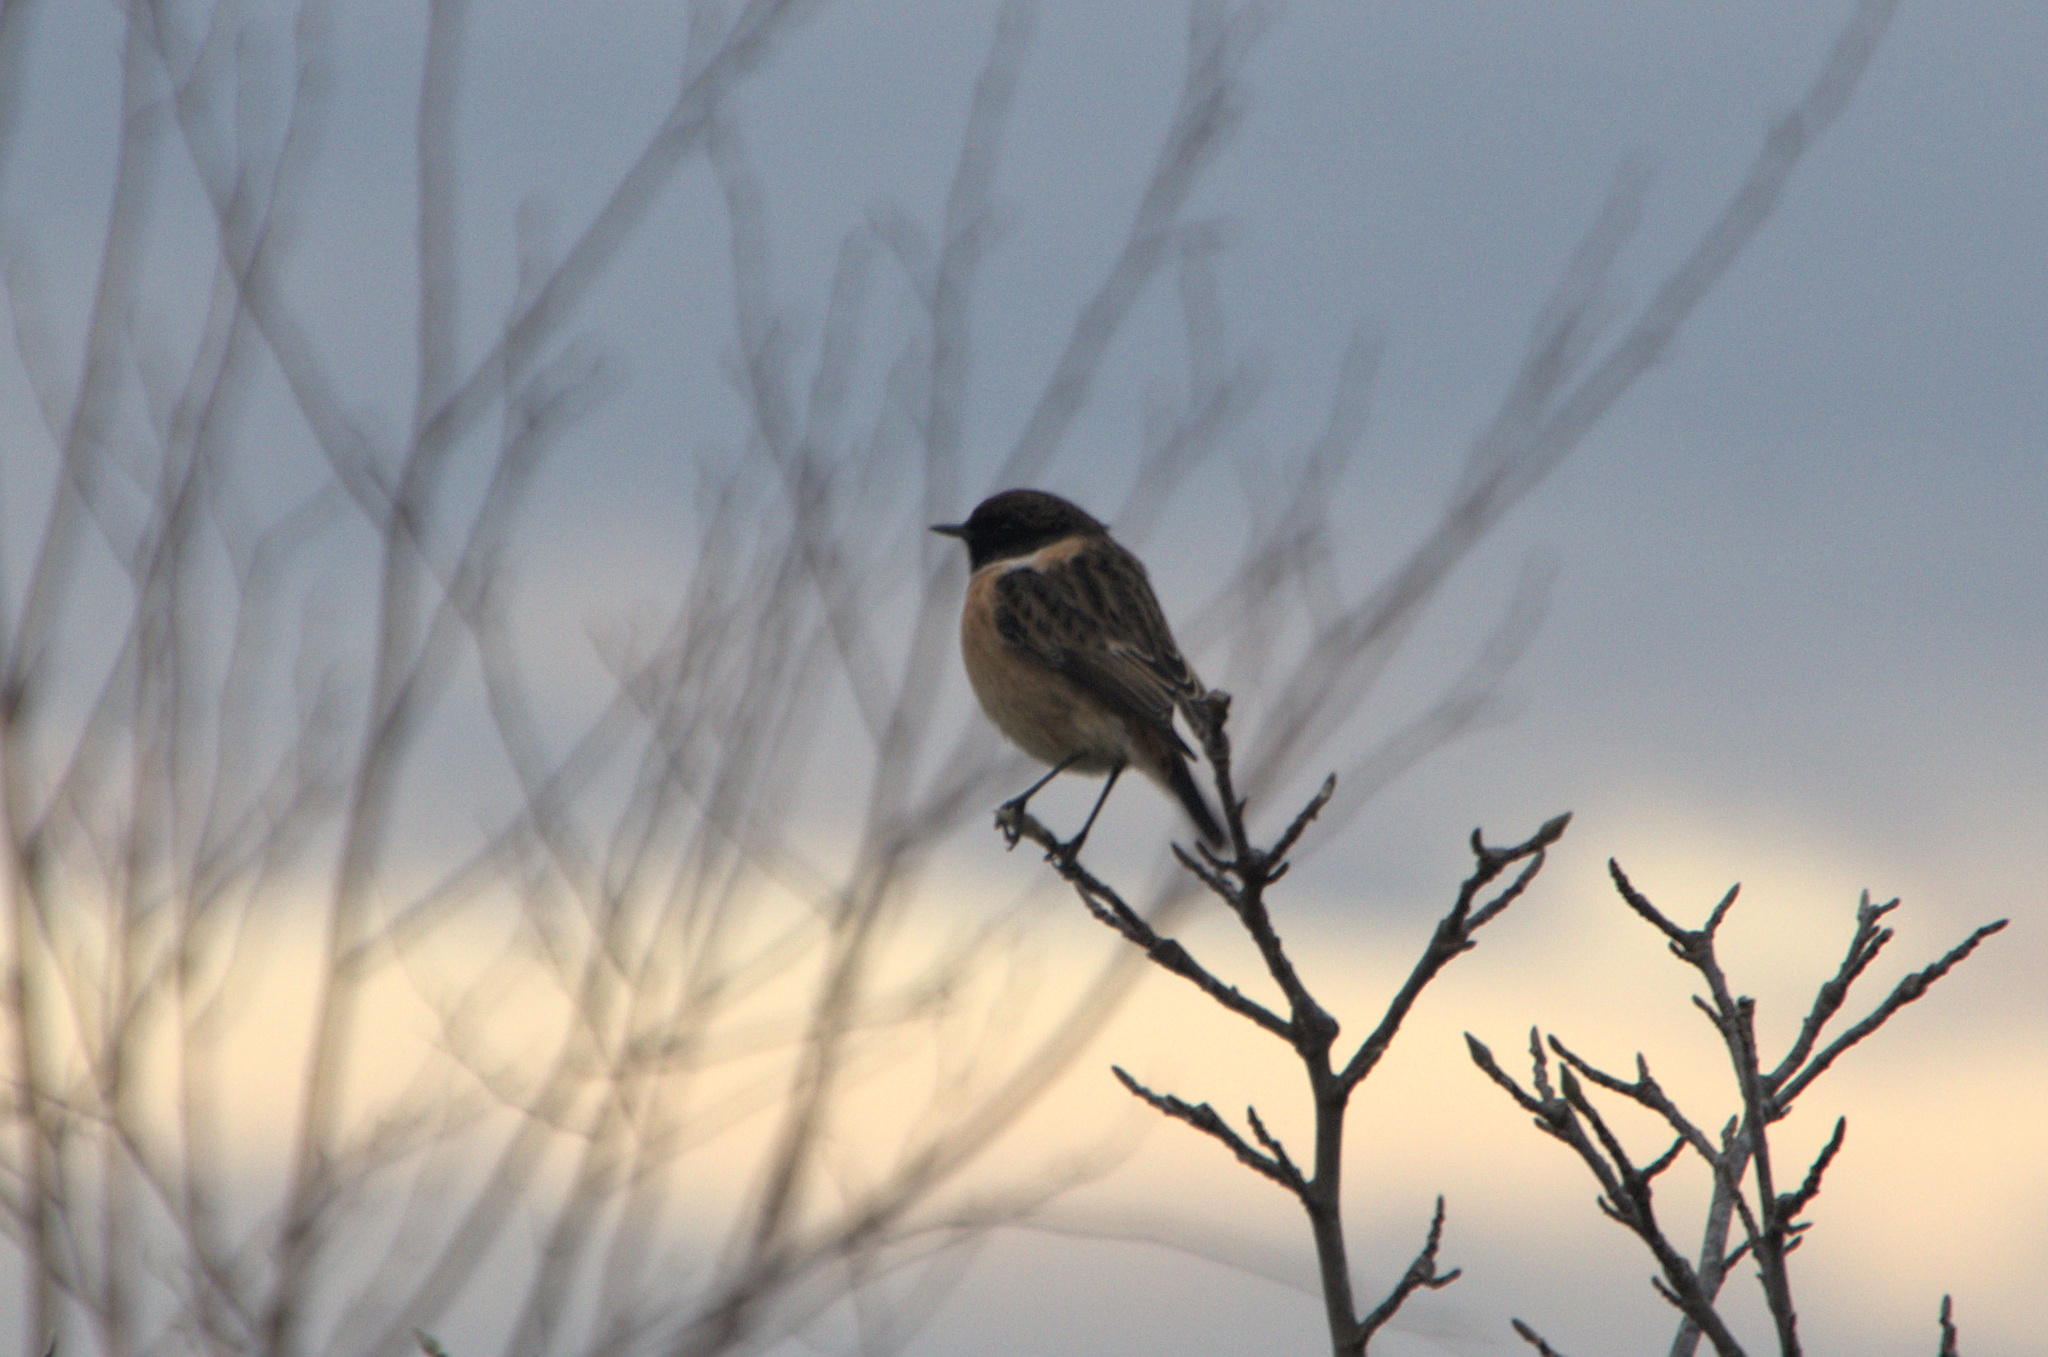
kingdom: Animalia
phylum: Chordata
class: Aves
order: Passeriformes
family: Muscicapidae
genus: Saxicola
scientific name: Saxicola rubicola
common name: European stonechat
